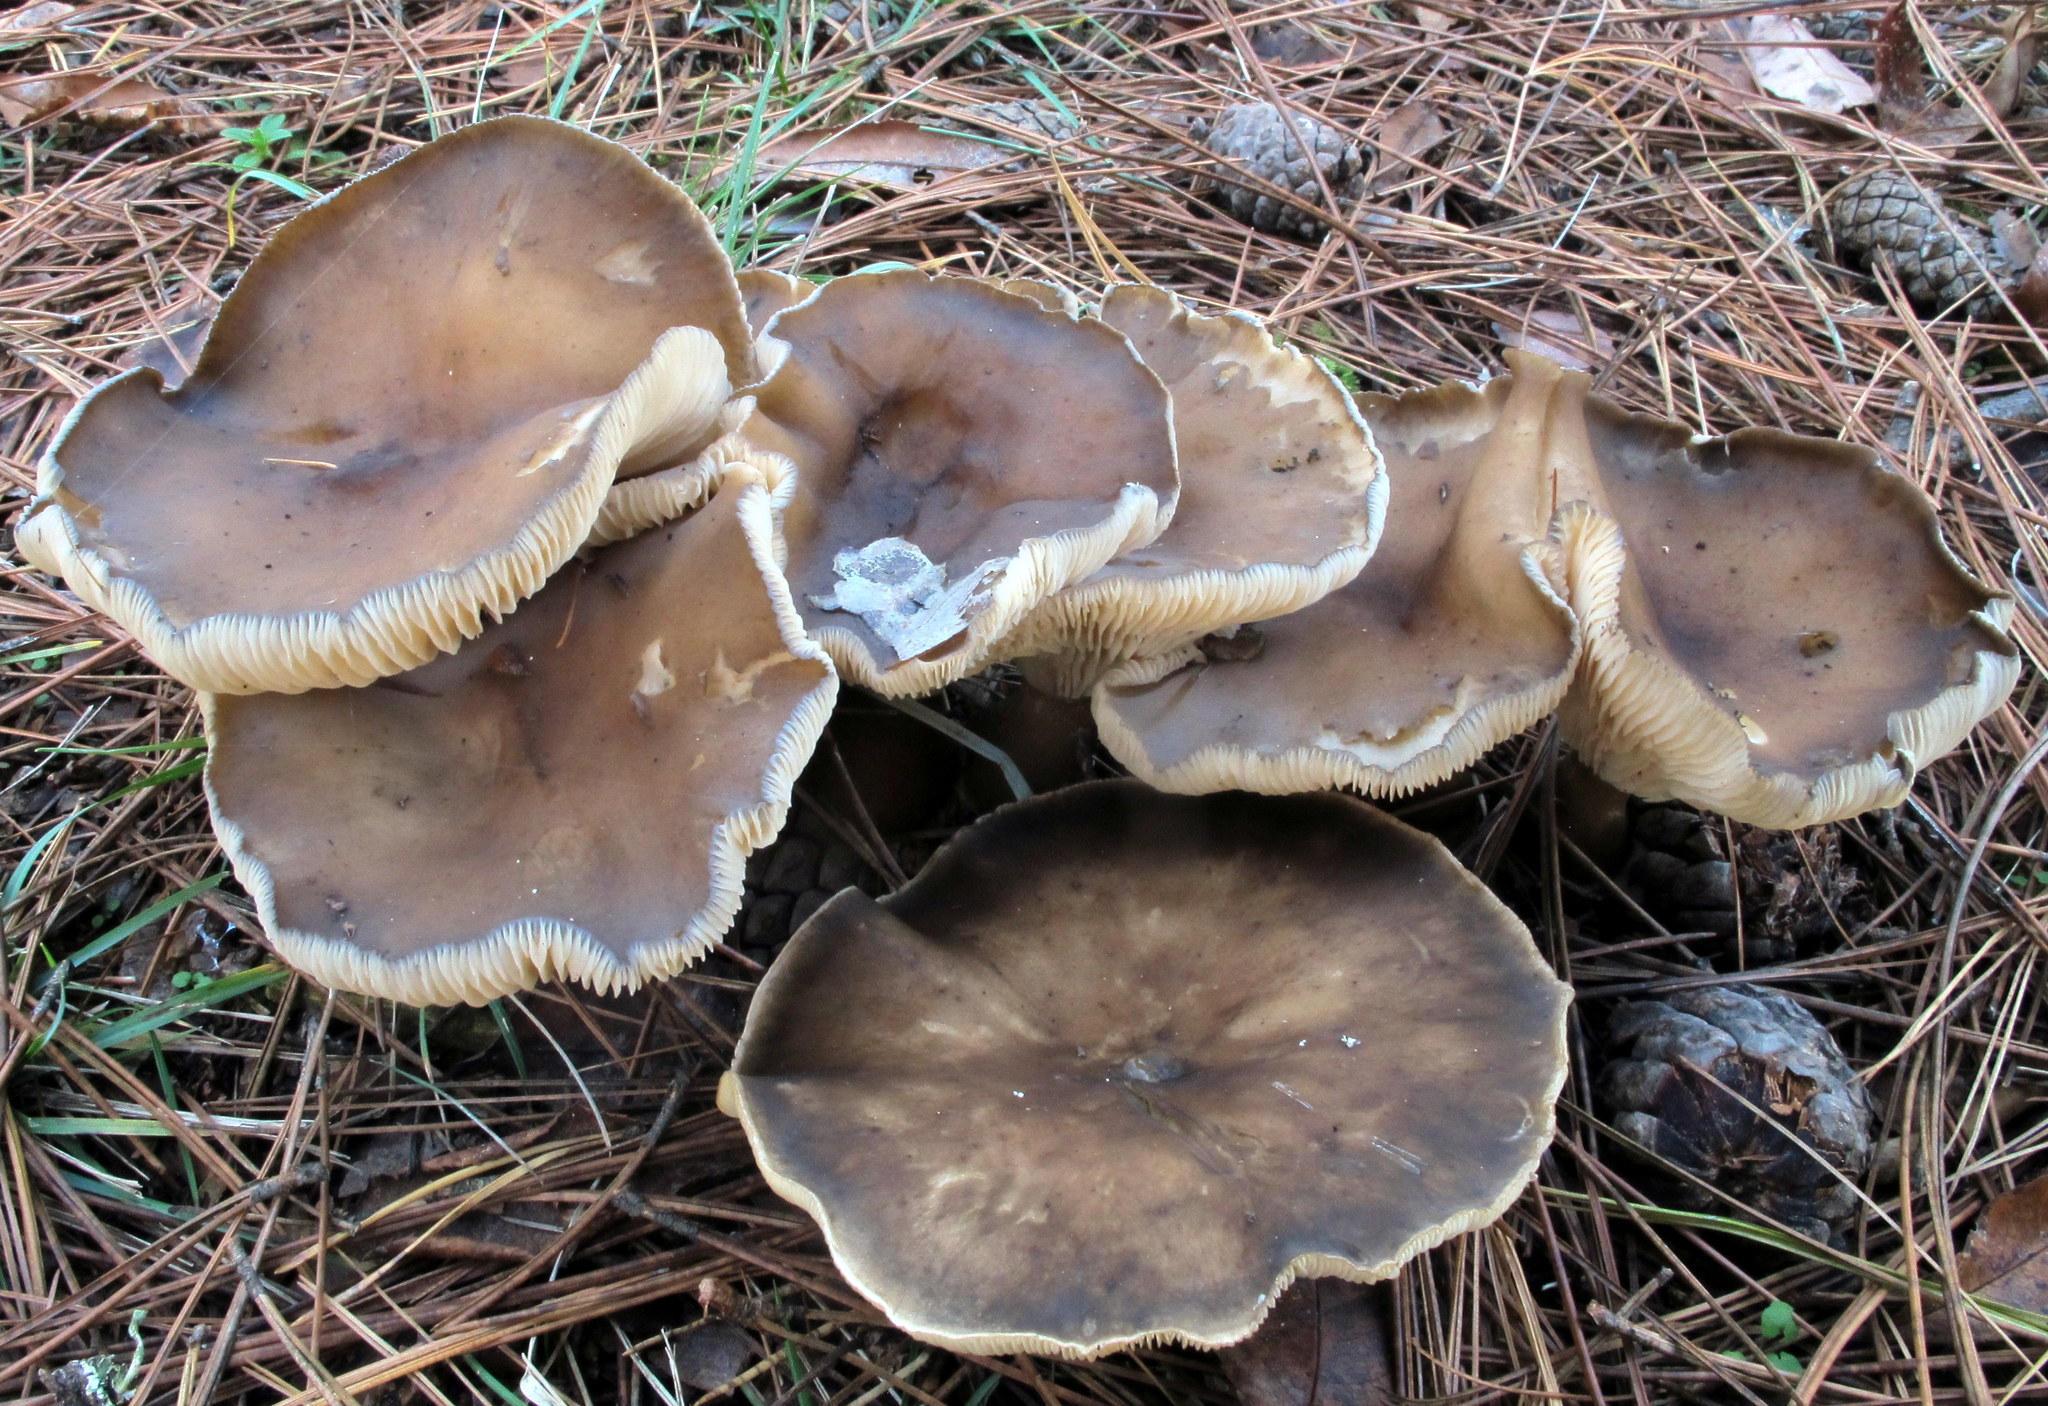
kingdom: Fungi
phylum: Basidiomycota
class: Agaricomycetes
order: Agaricales
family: Hygrophoraceae
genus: Ampulloclitocybe
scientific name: Ampulloclitocybe clavipes
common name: Club foot
